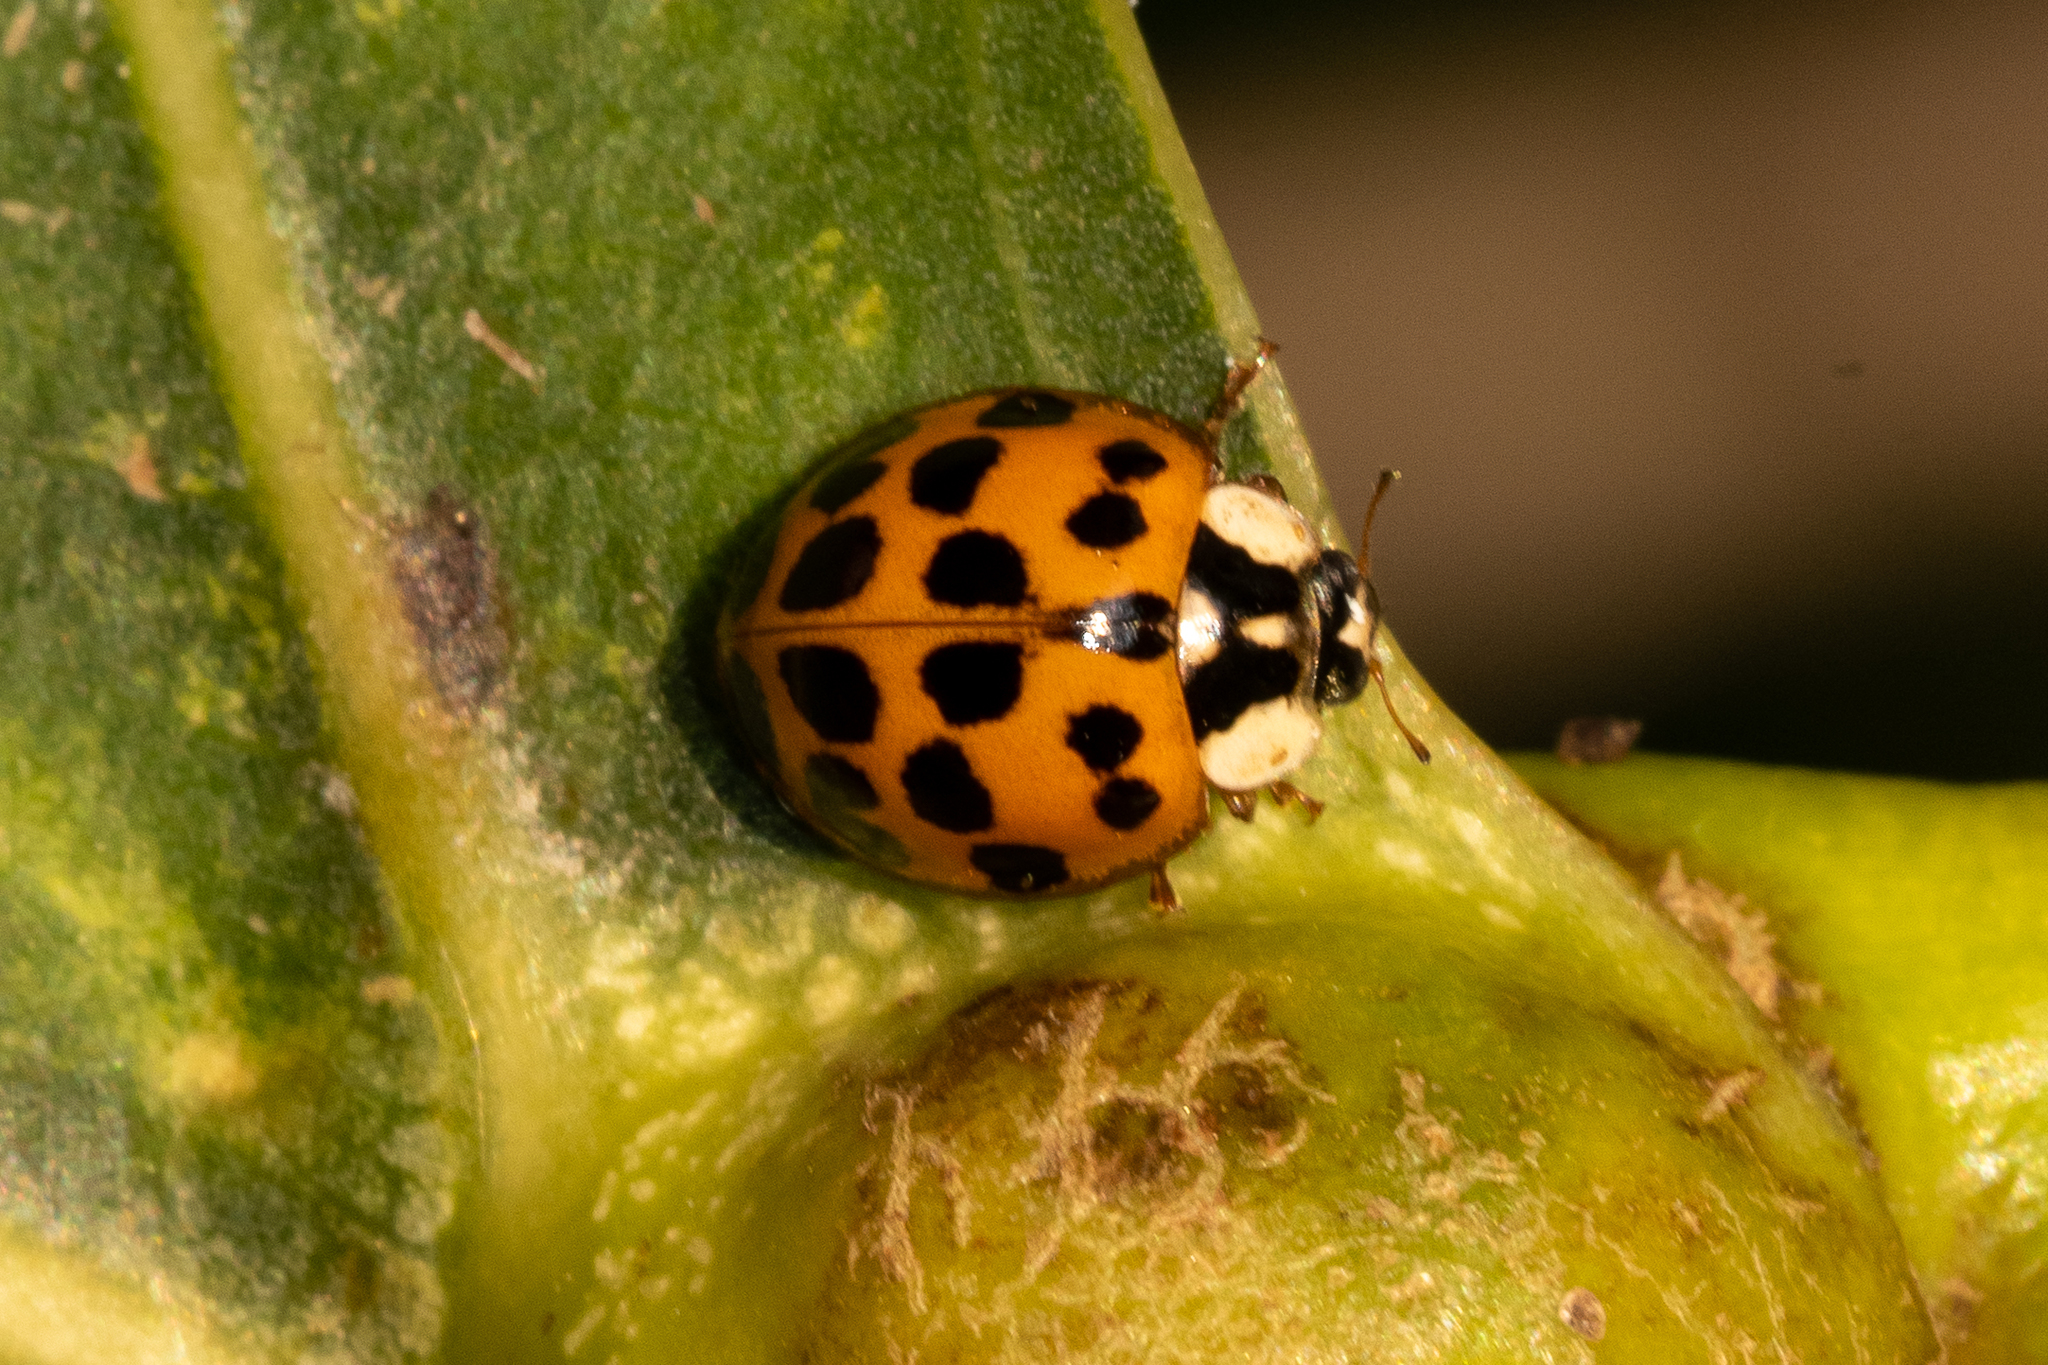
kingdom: Animalia
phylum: Arthropoda
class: Insecta
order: Coleoptera
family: Coccinellidae
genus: Harmonia
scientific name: Harmonia axyridis
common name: Harlequin ladybird
